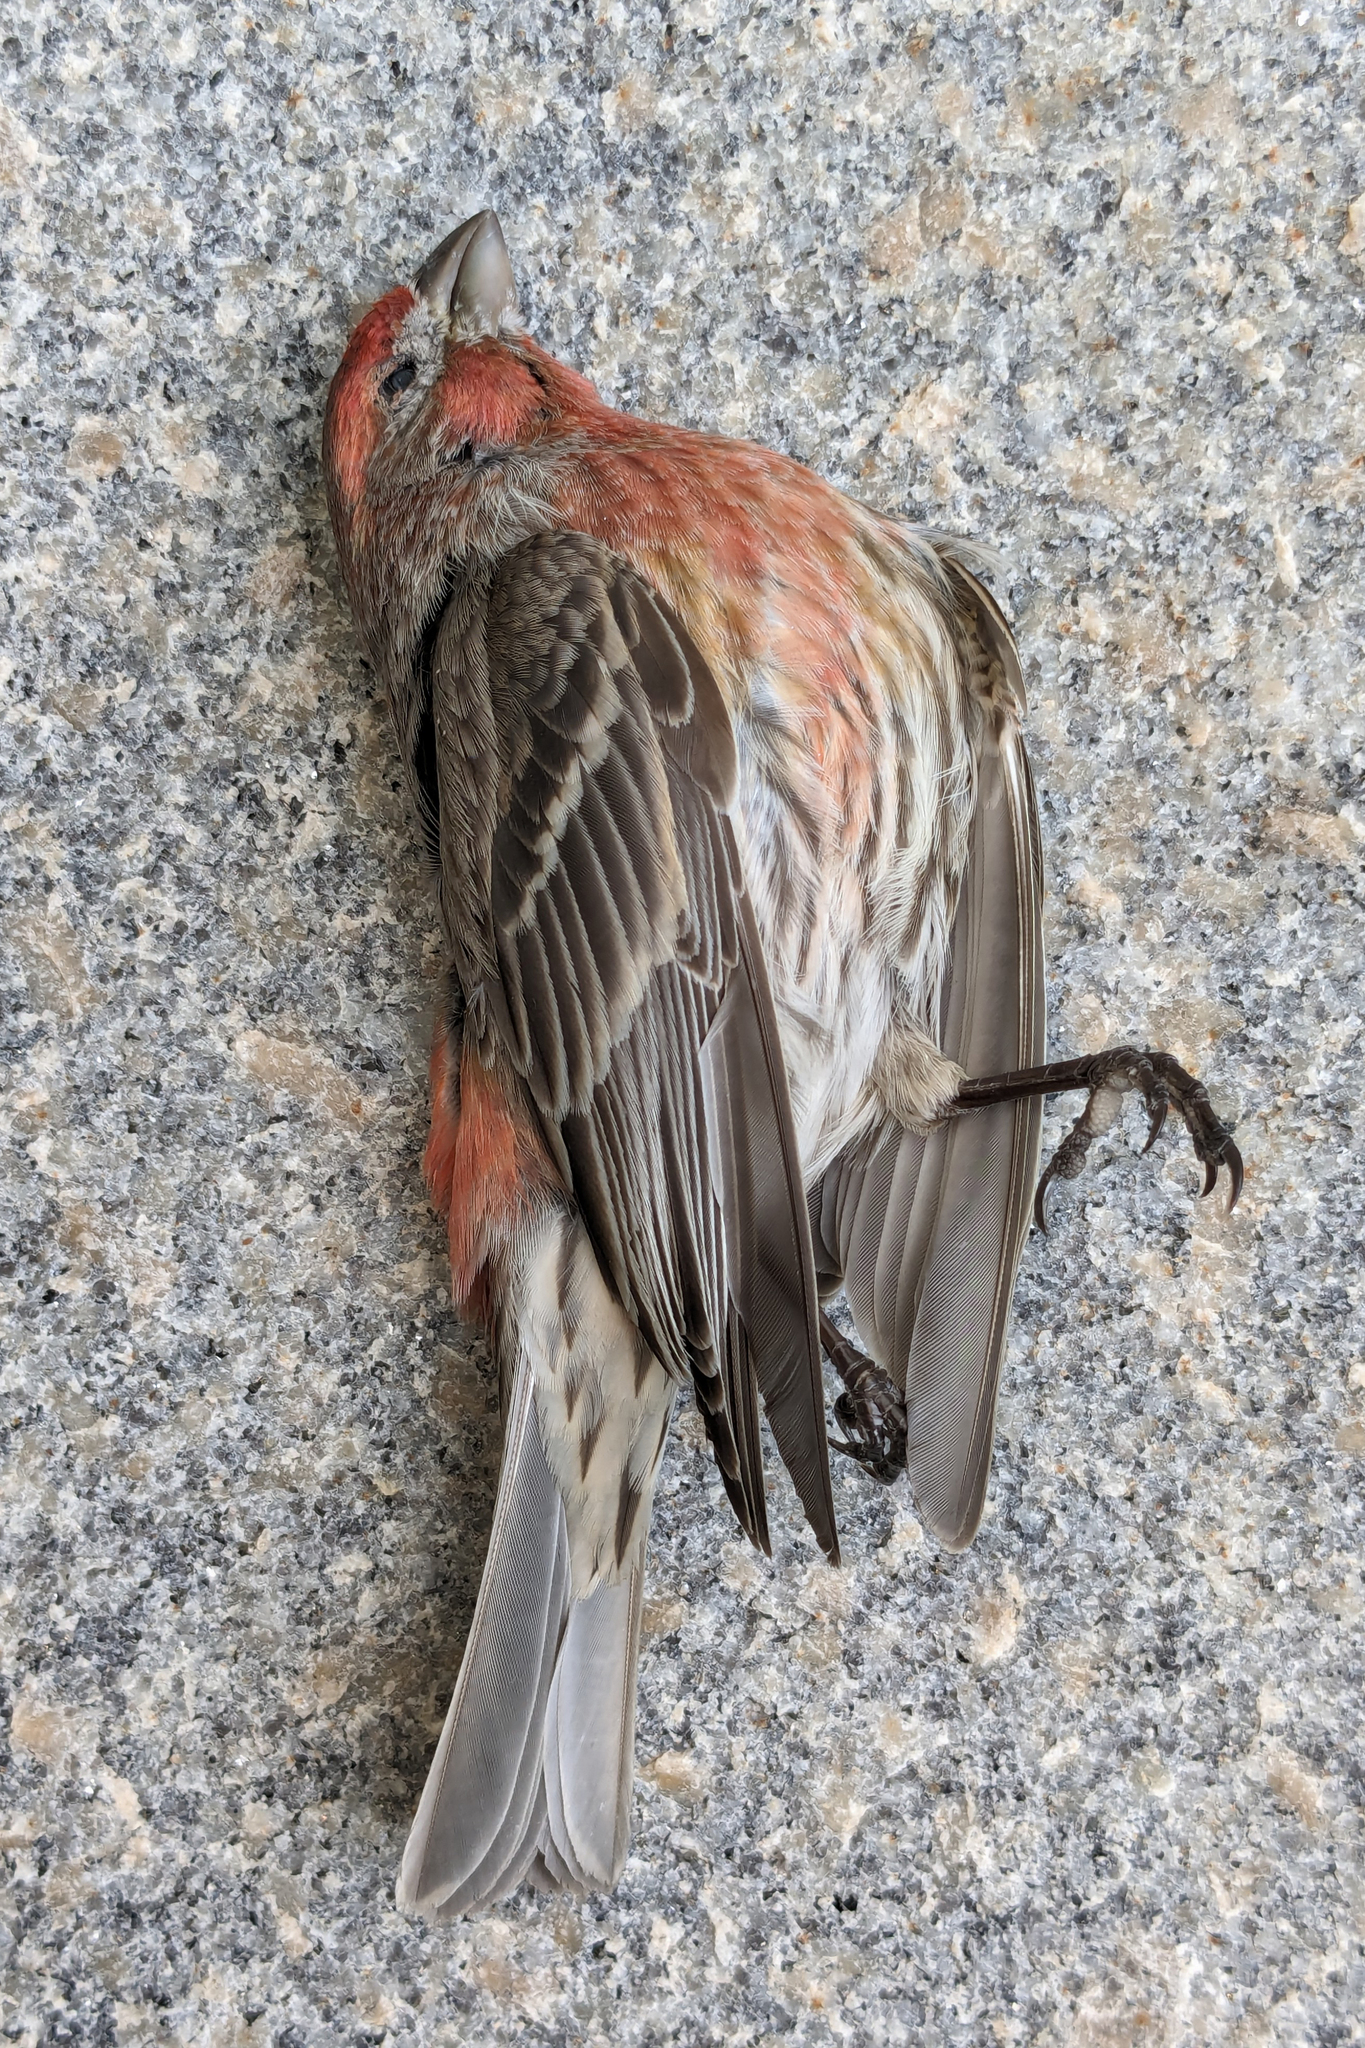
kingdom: Animalia
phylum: Chordata
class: Aves
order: Passeriformes
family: Fringillidae
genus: Haemorhous
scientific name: Haemorhous mexicanus
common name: House finch
